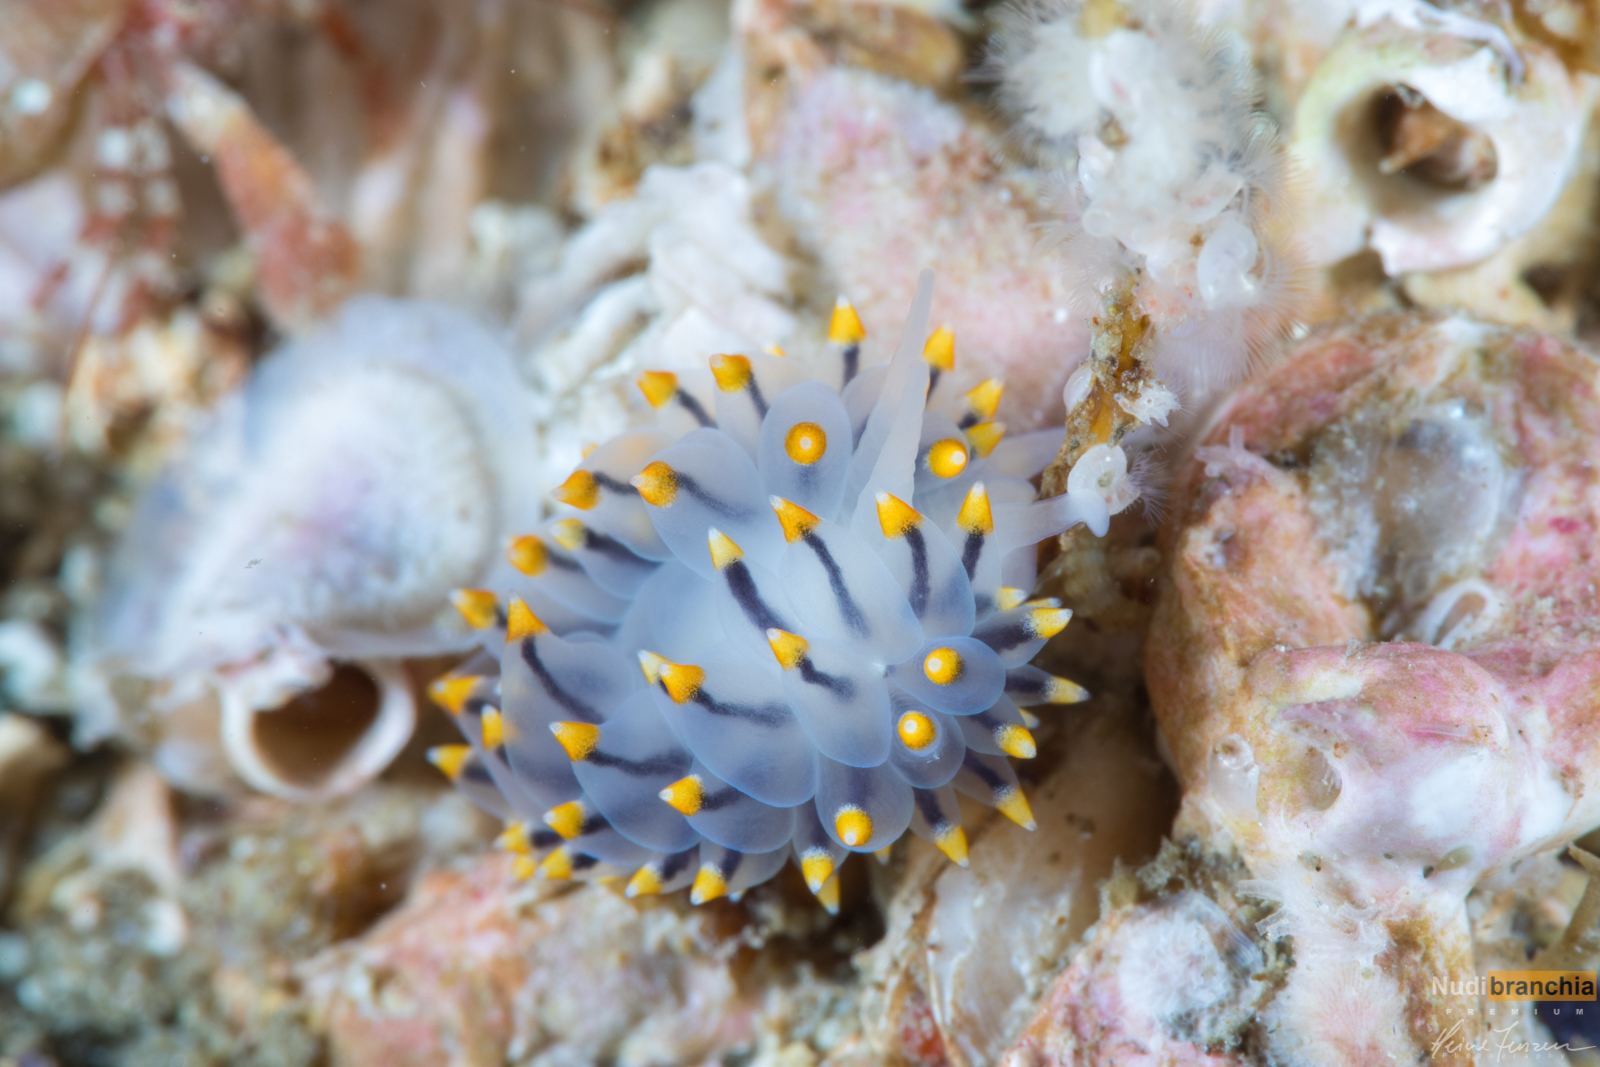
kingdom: Animalia
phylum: Mollusca
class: Gastropoda
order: Nudibranchia
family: Eubranchidae
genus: Eubranchus
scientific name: Eubranchus tricolor
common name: Painted balloon aeolis
